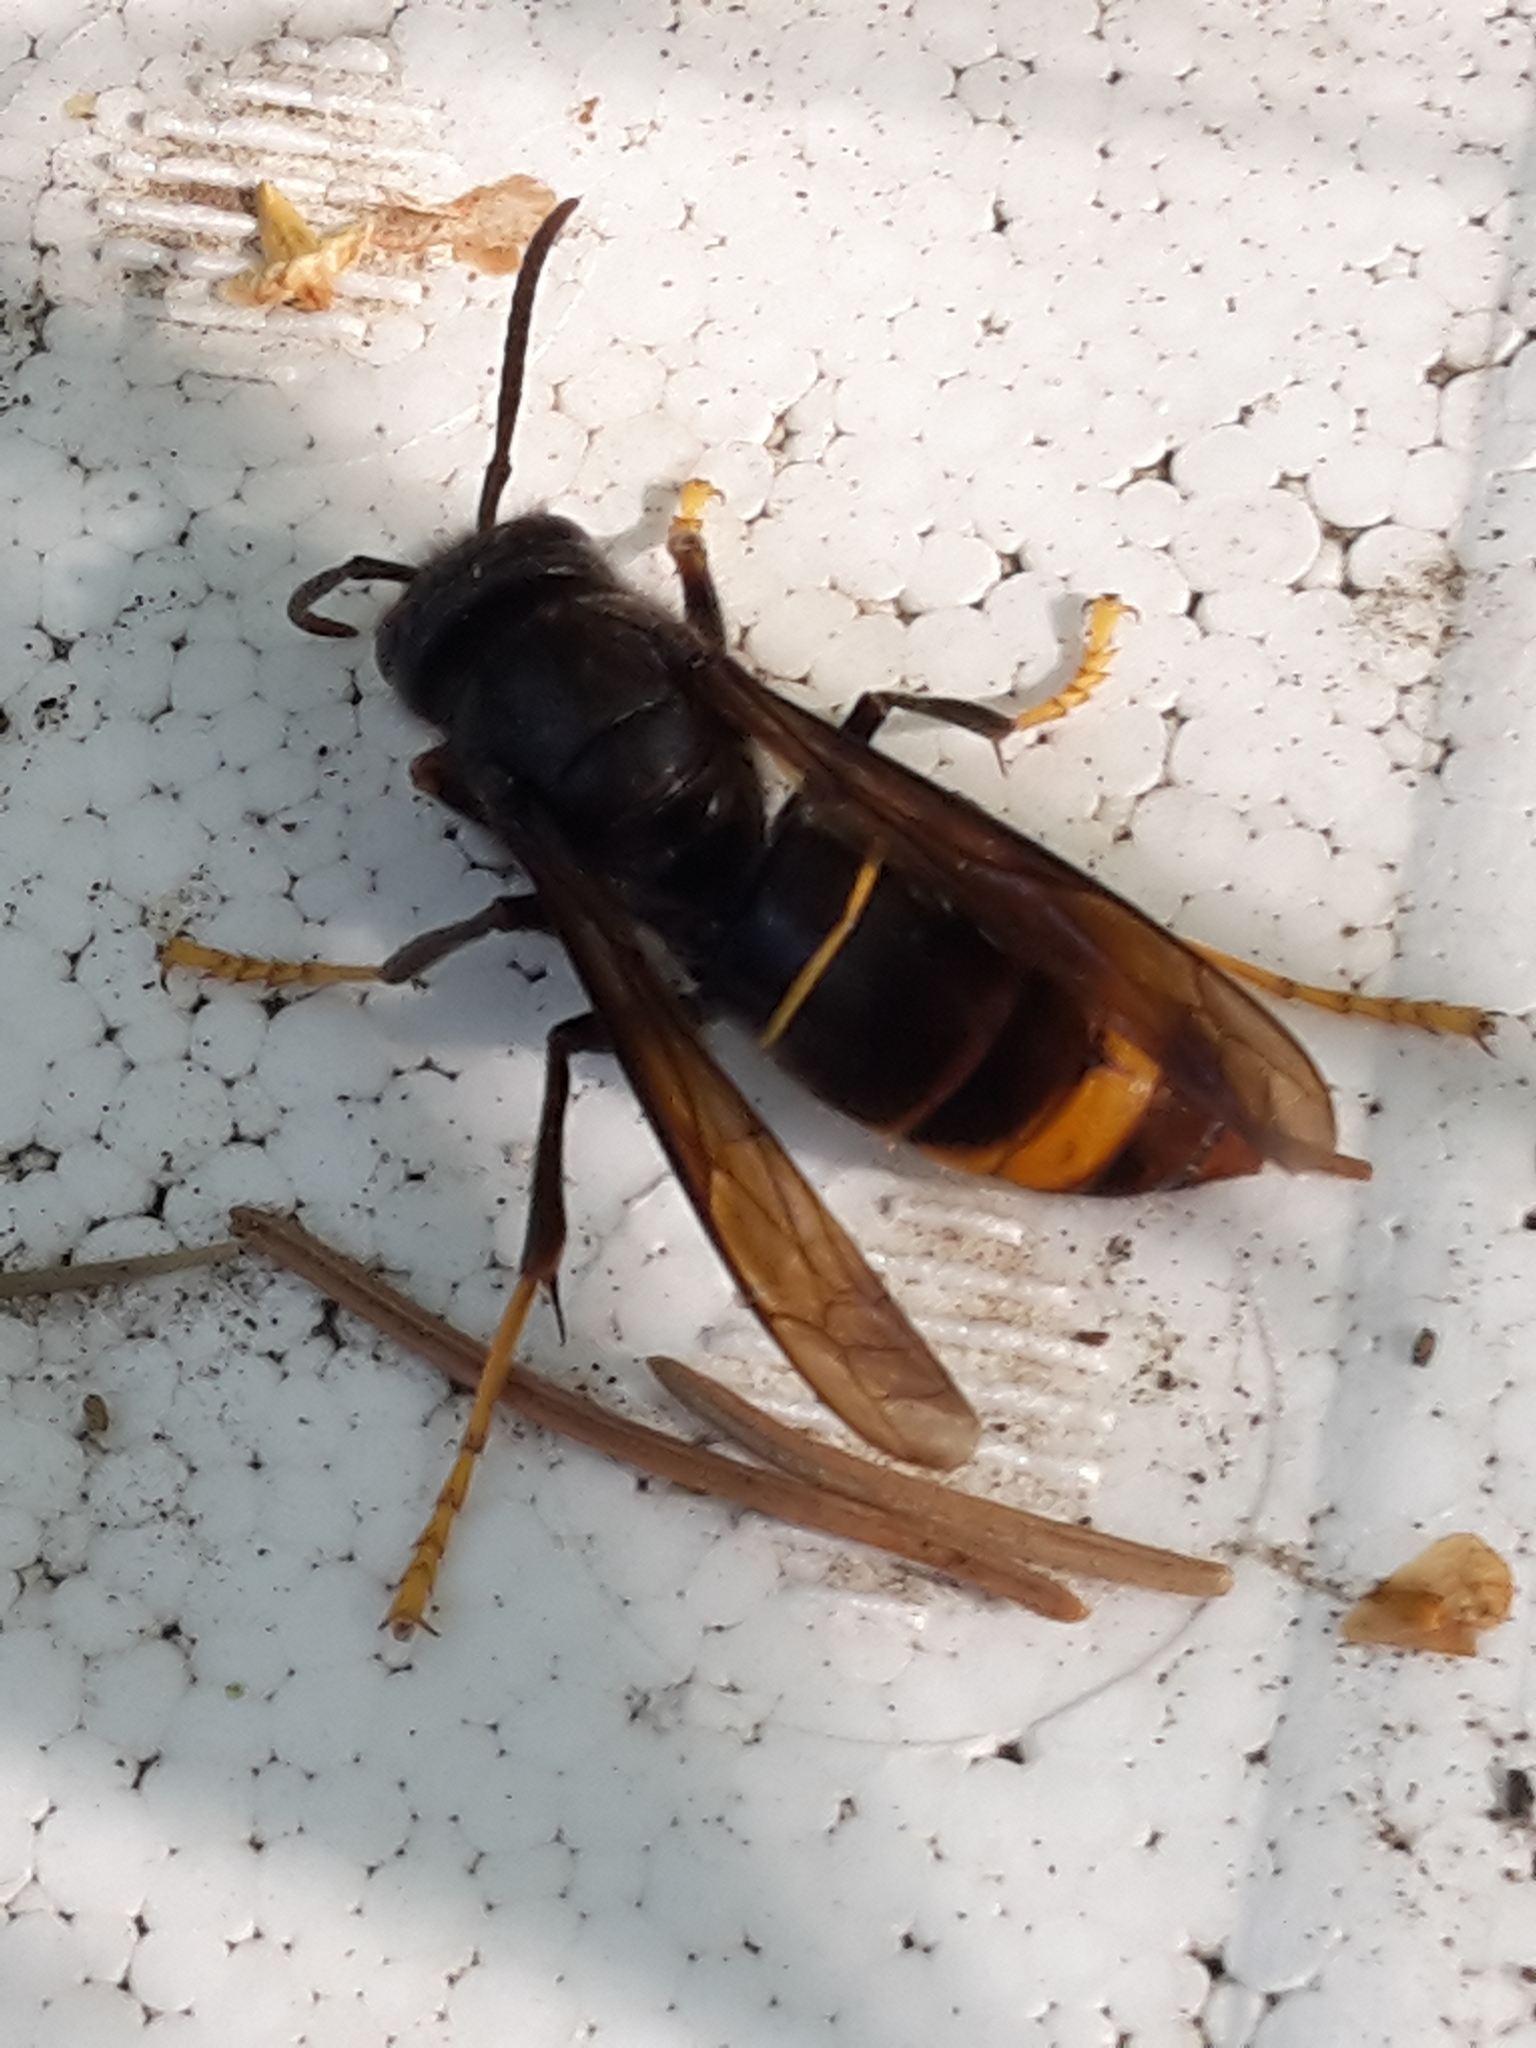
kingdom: Animalia
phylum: Arthropoda
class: Insecta
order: Hymenoptera
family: Vespidae
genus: Vespa
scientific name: Vespa velutina
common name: Asian hornet
